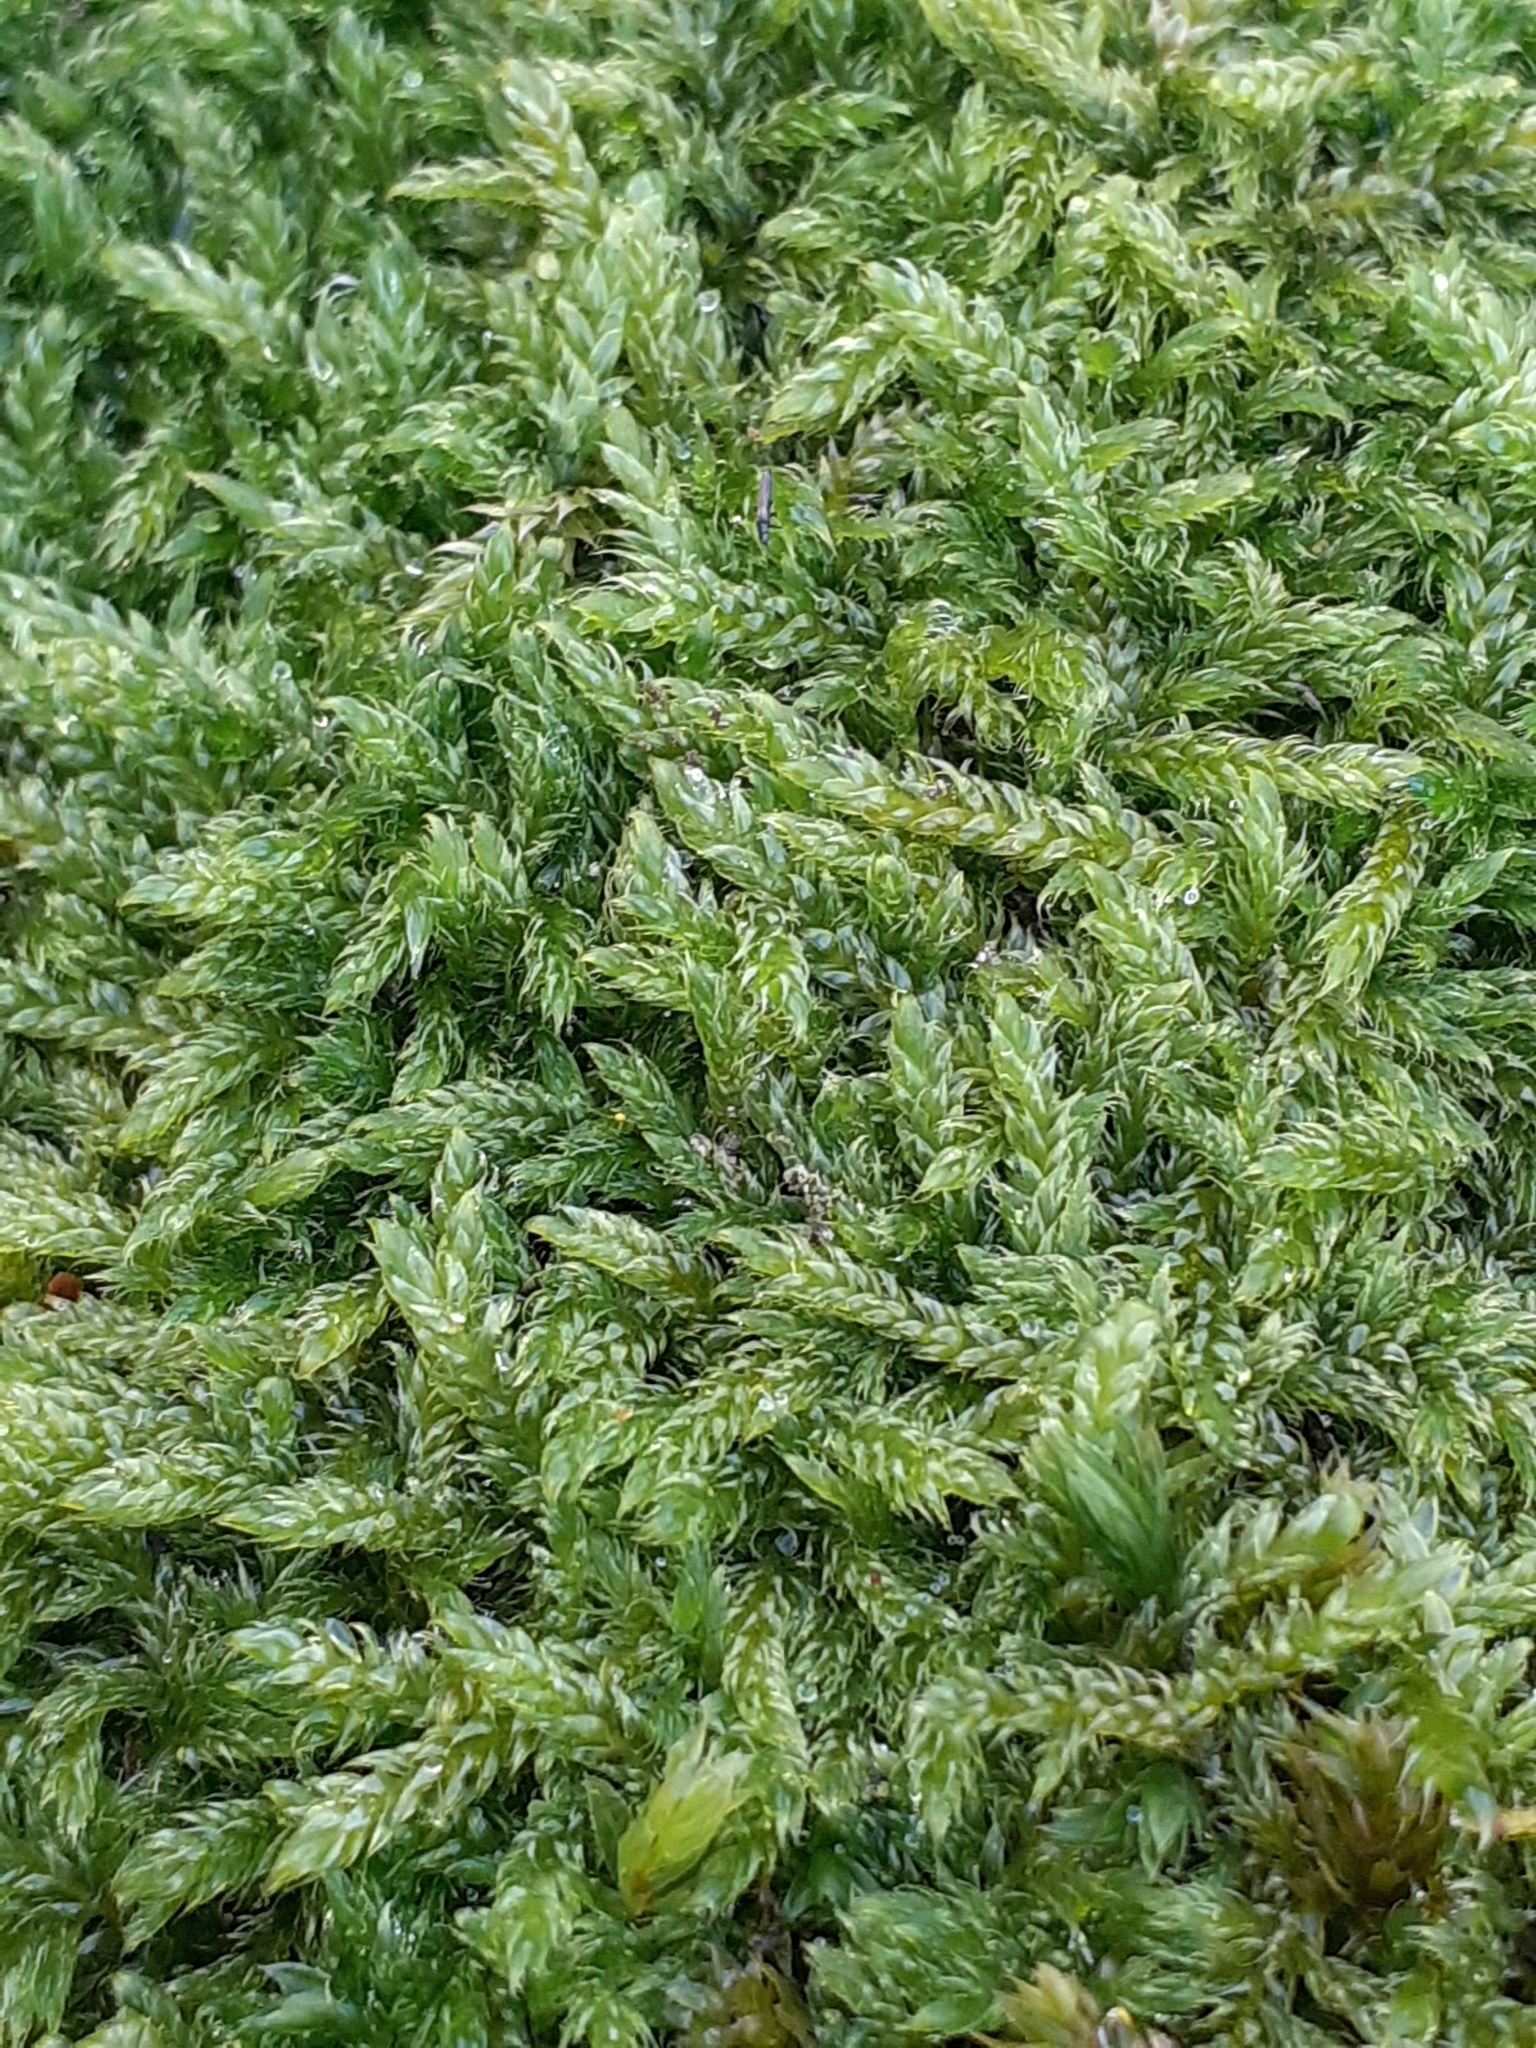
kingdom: Plantae
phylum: Bryophyta
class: Bryopsida
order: Hypnales
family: Hypnaceae
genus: Hypnum
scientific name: Hypnum cupressiforme
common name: Cypress-leaved plait-moss
